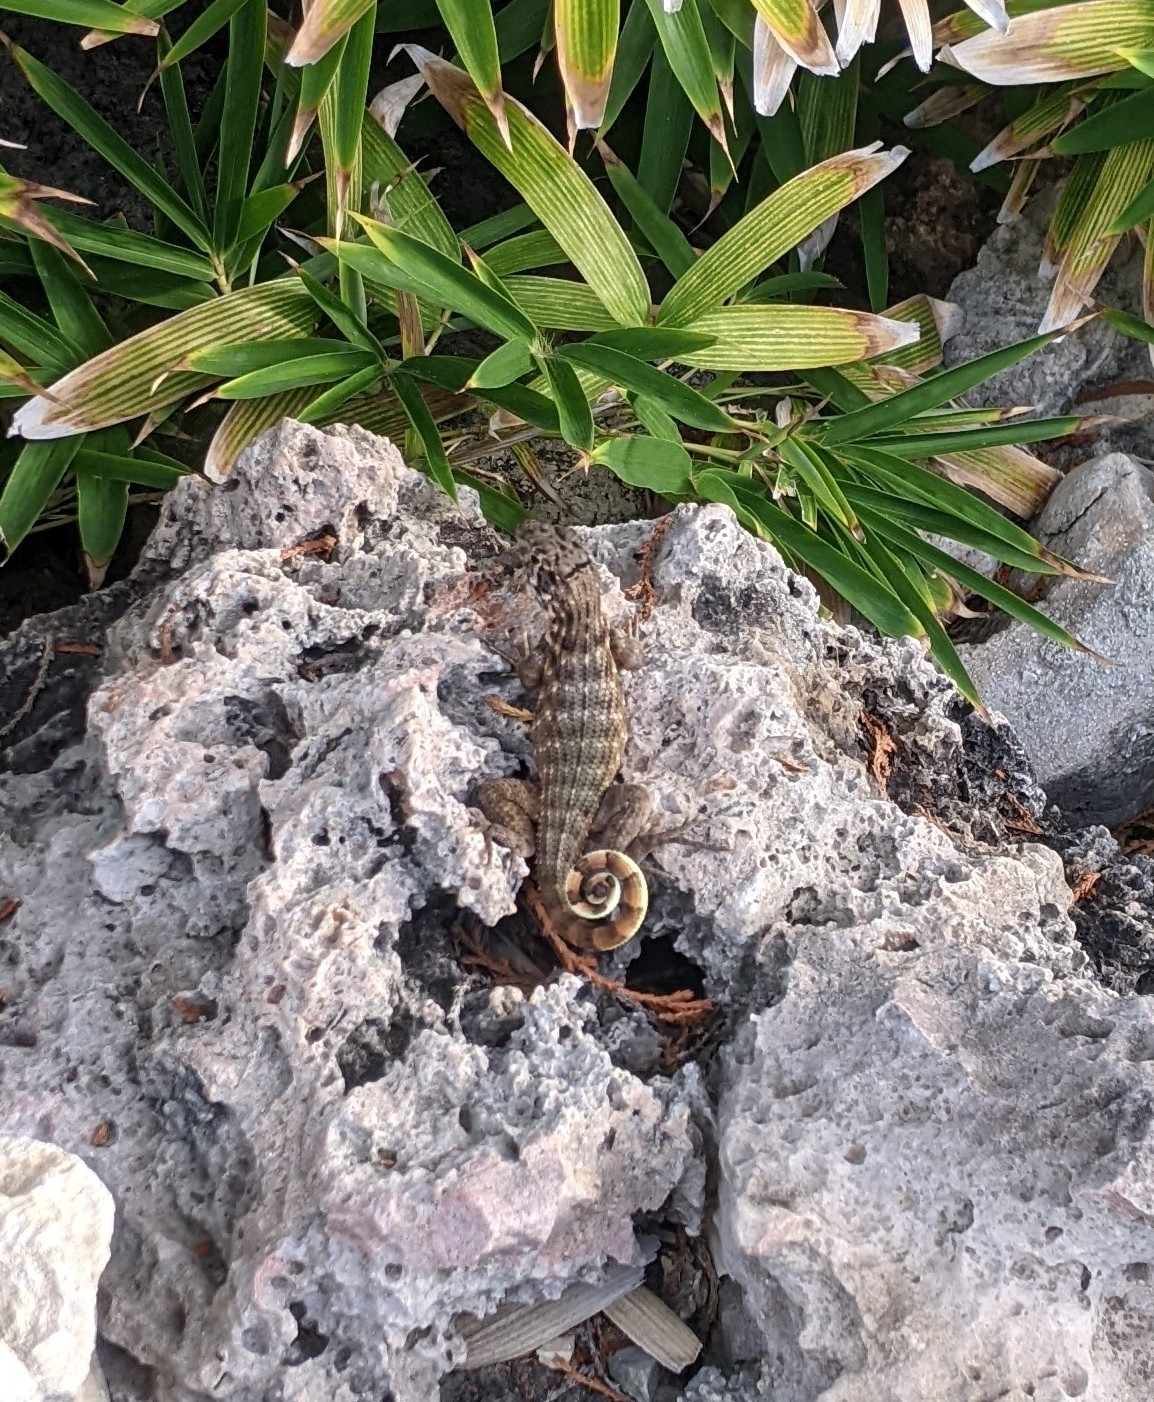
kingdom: Animalia
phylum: Chordata
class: Squamata
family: Leiocephalidae
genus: Leiocephalus
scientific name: Leiocephalus carinatus
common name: Northern curly-tailed lizard
